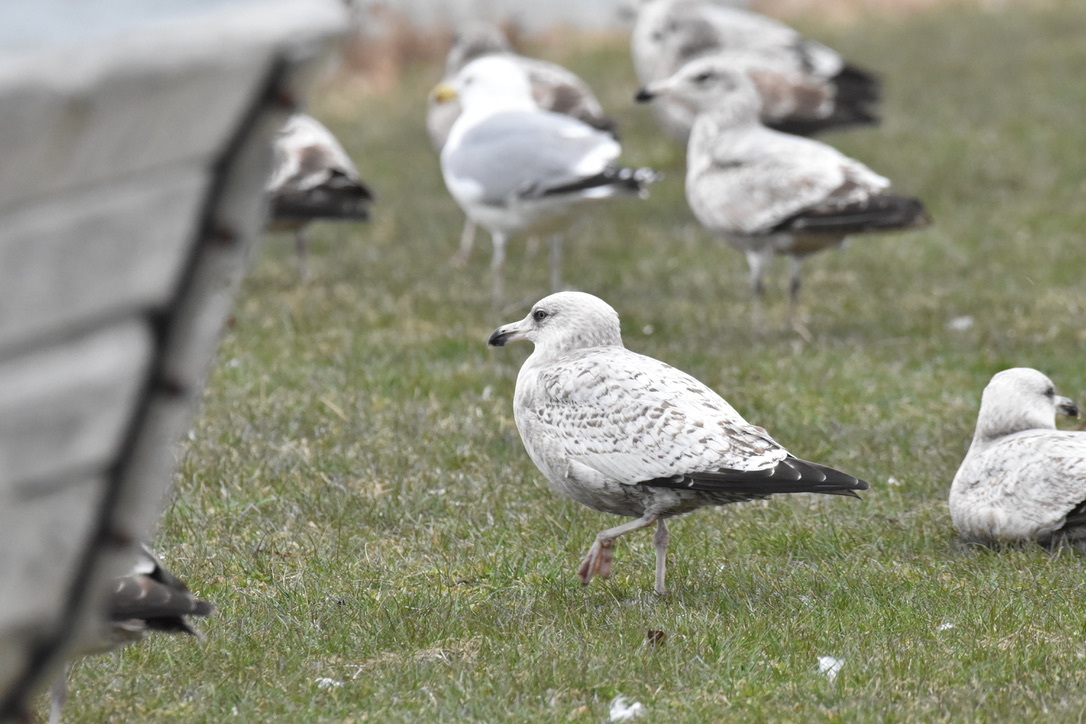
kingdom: Animalia
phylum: Chordata
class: Aves
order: Charadriiformes
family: Laridae
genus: Larus
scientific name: Larus argentatus
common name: Herring gull
